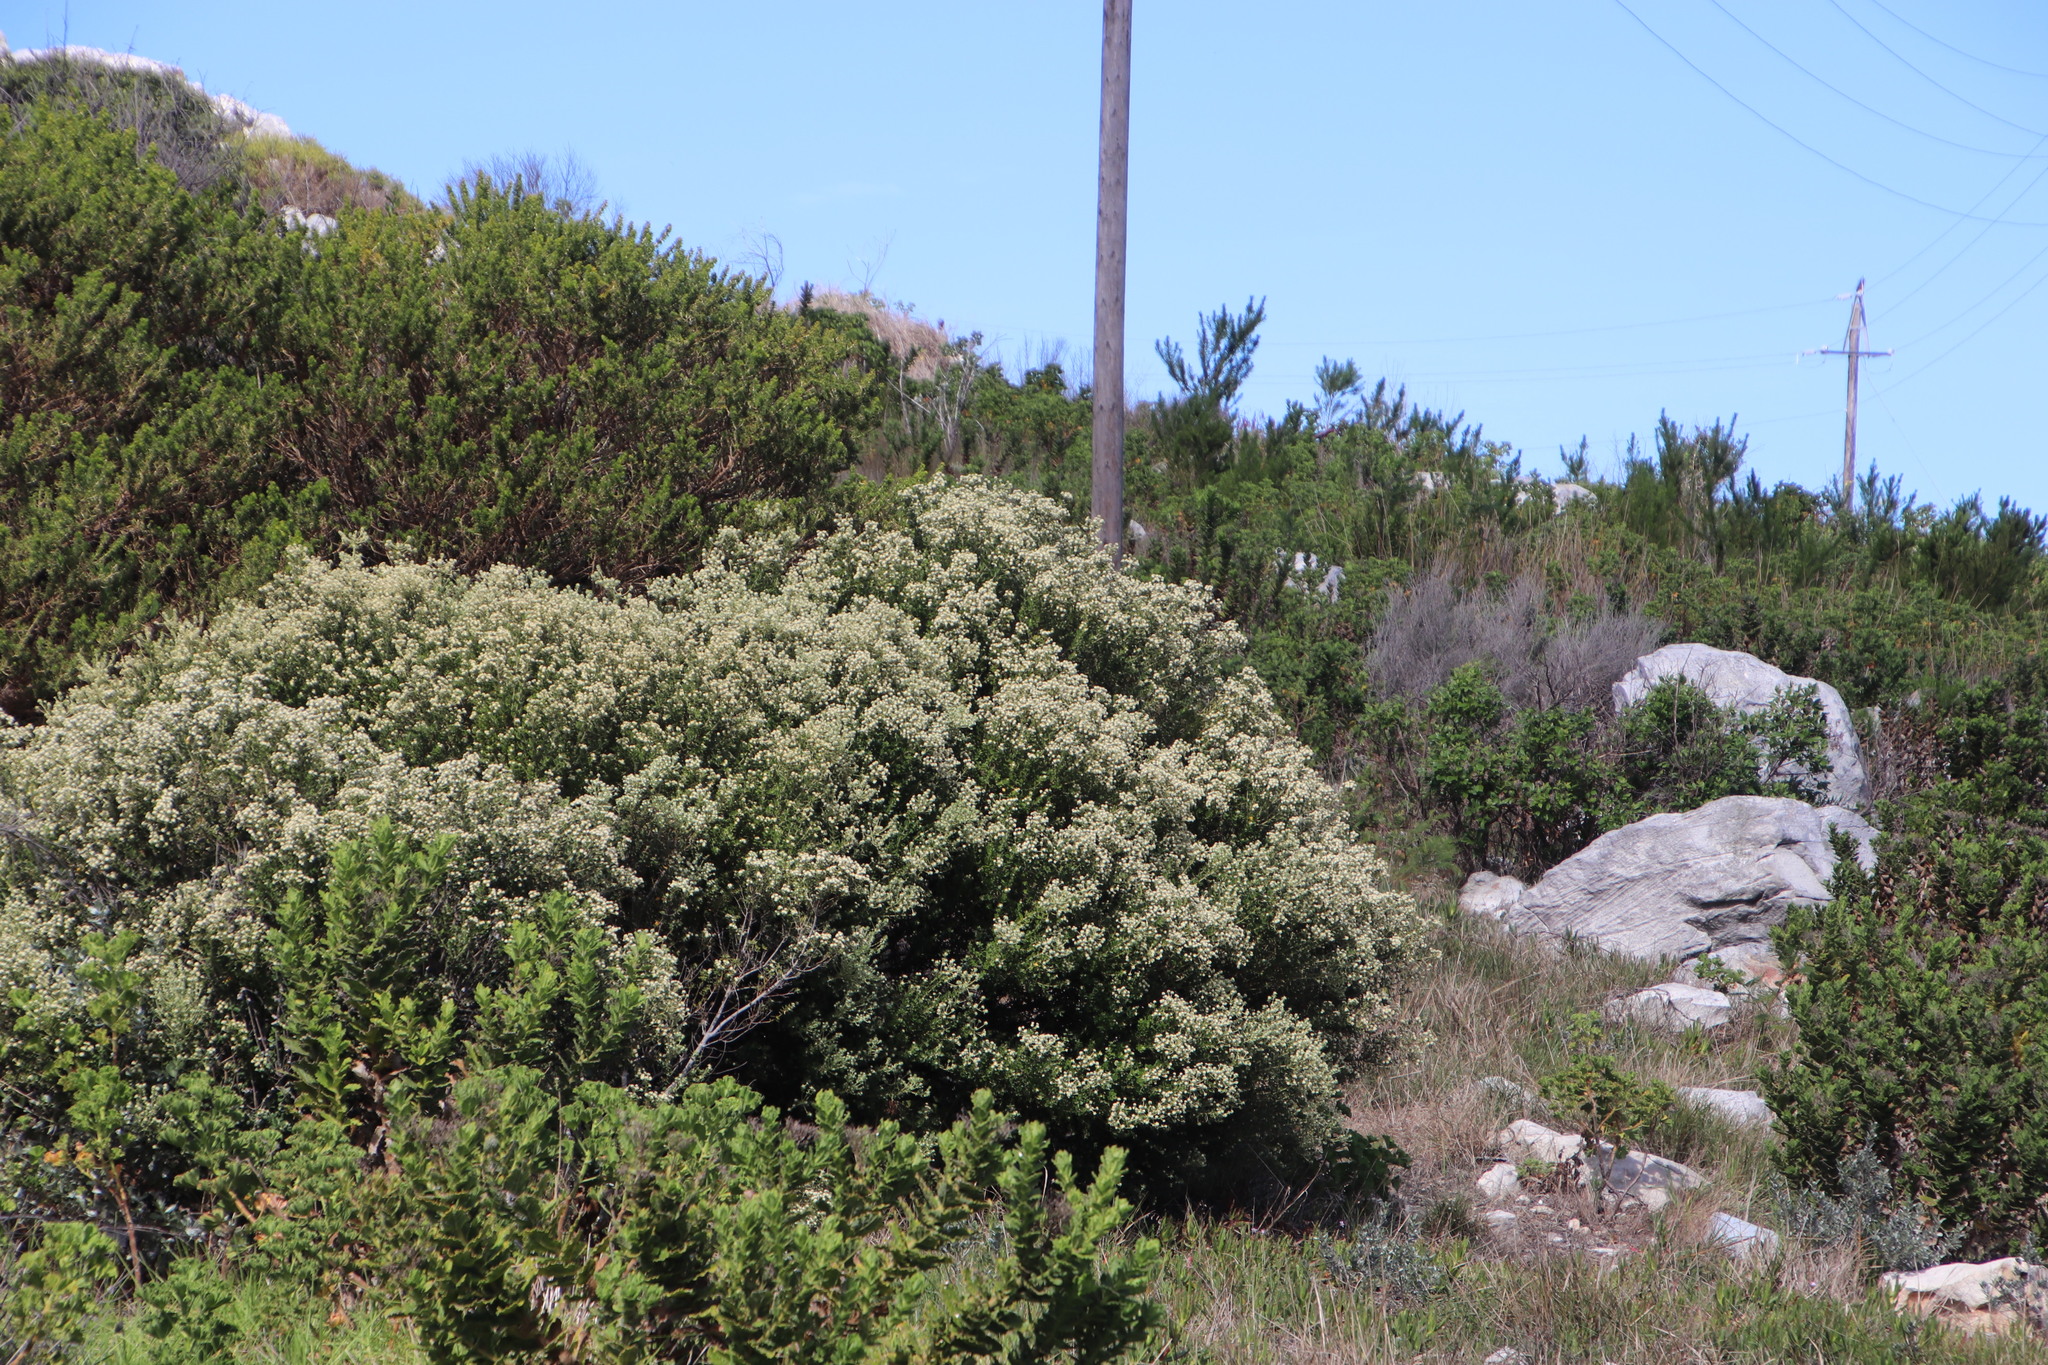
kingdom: Plantae
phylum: Tracheophyta
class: Magnoliopsida
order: Rosales
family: Rhamnaceae
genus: Phylica
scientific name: Phylica buxifolia
